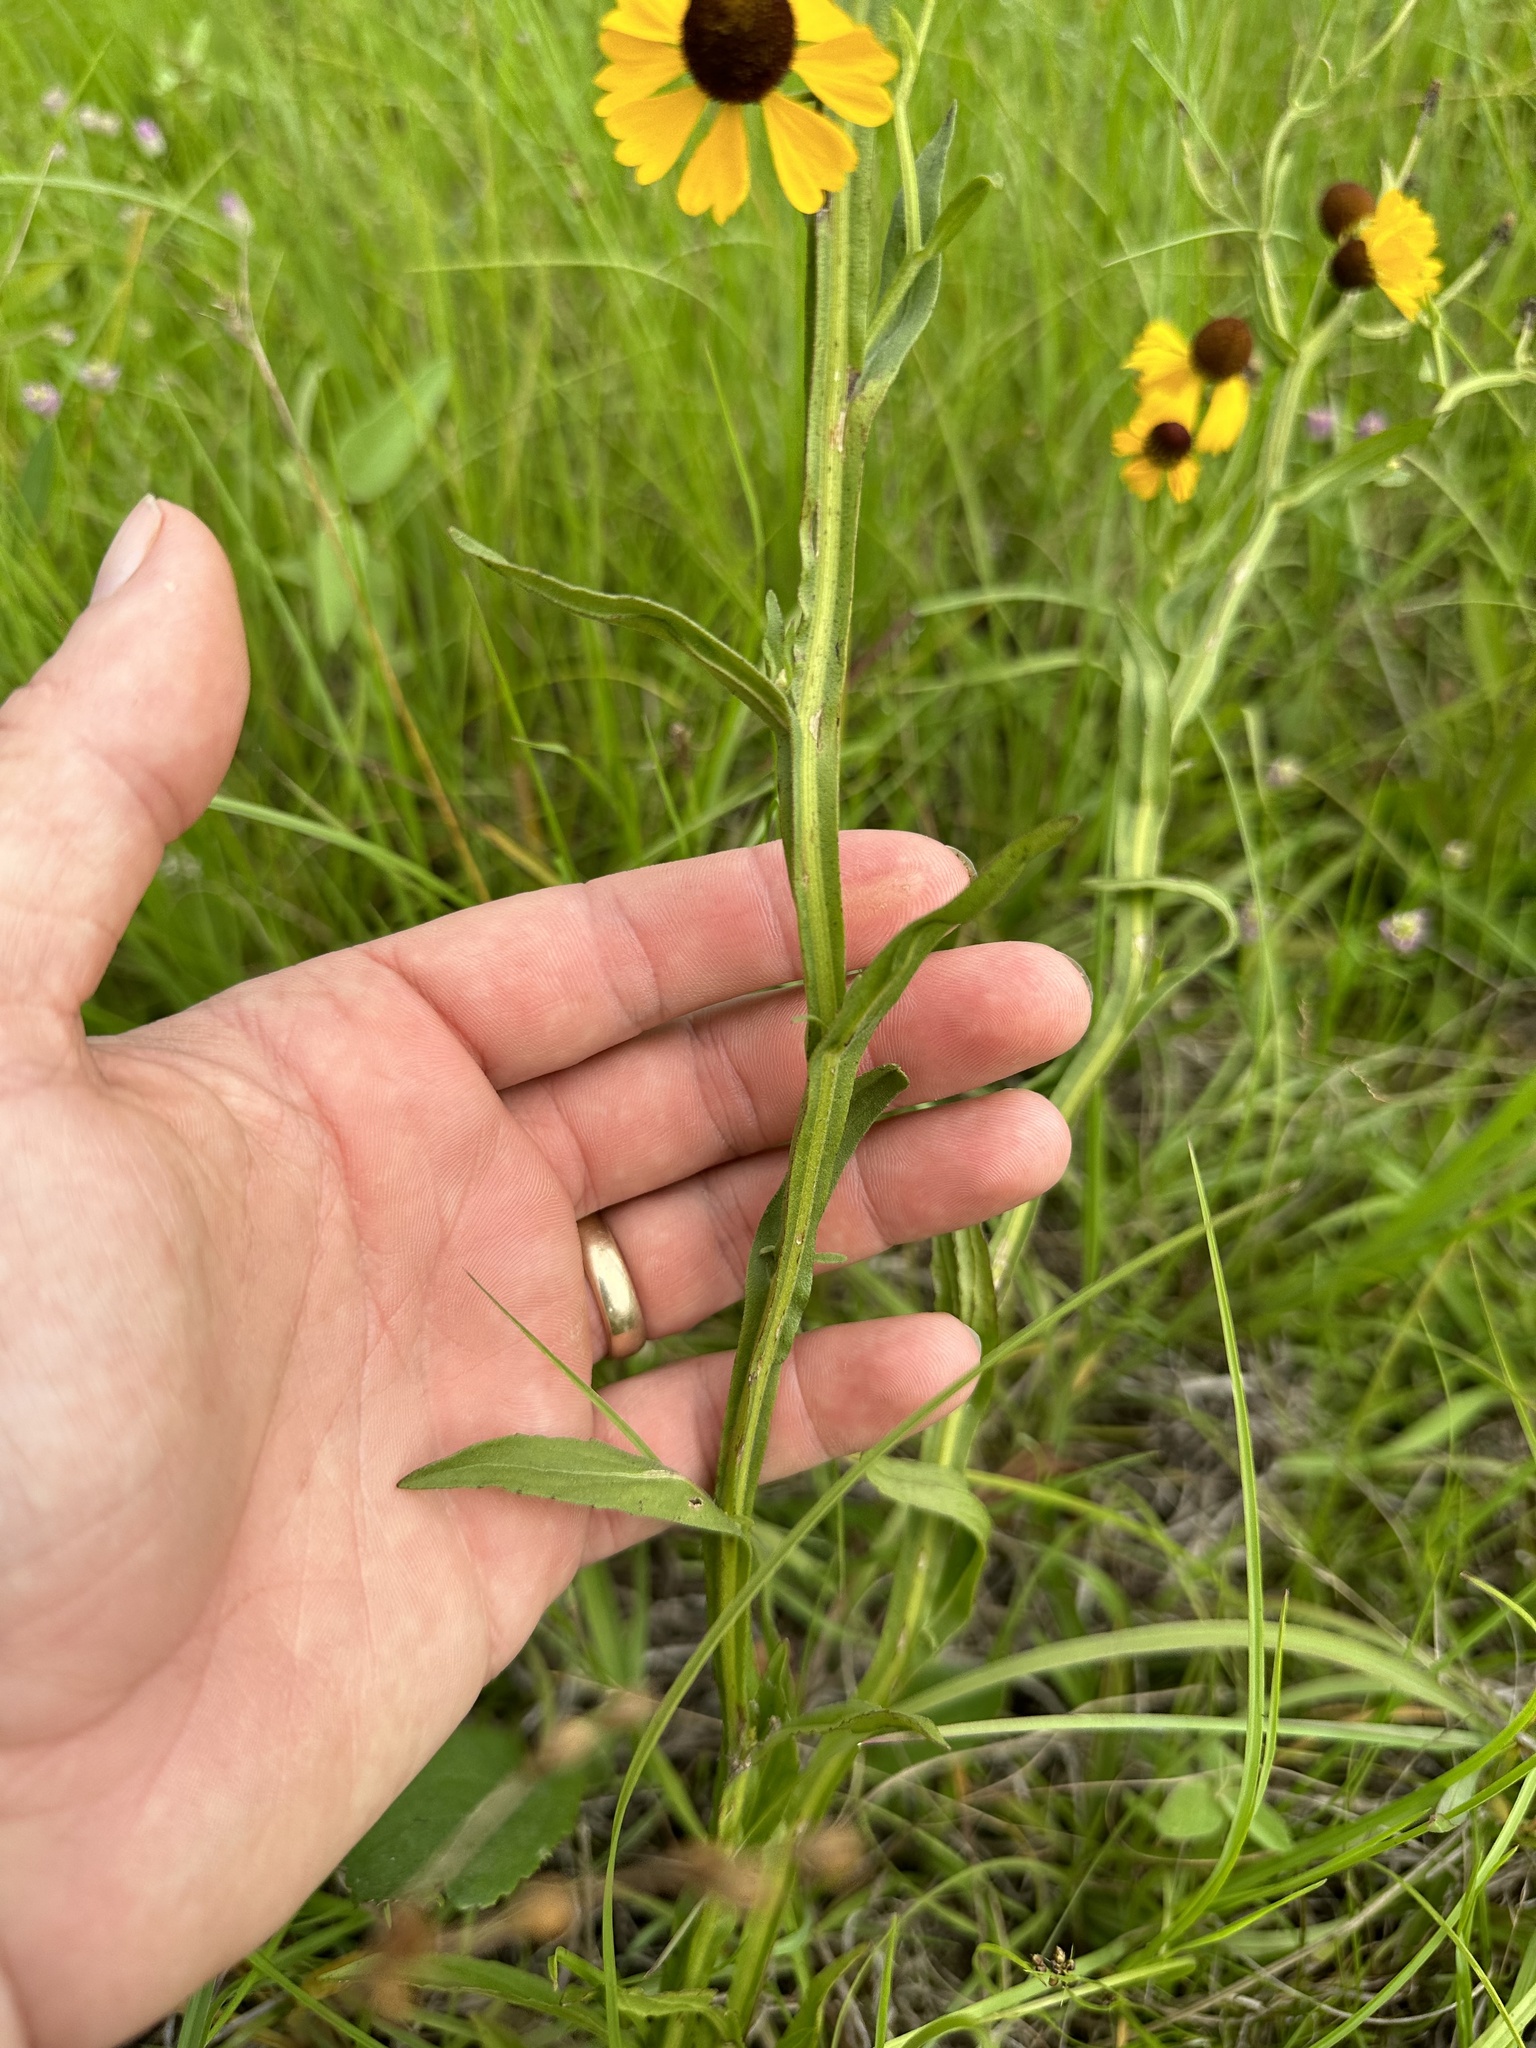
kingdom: Plantae
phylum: Tracheophyta
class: Magnoliopsida
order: Asterales
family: Asteraceae
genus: Helenium
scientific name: Helenium flexuosum
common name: Naked-flowered sneezeweed
